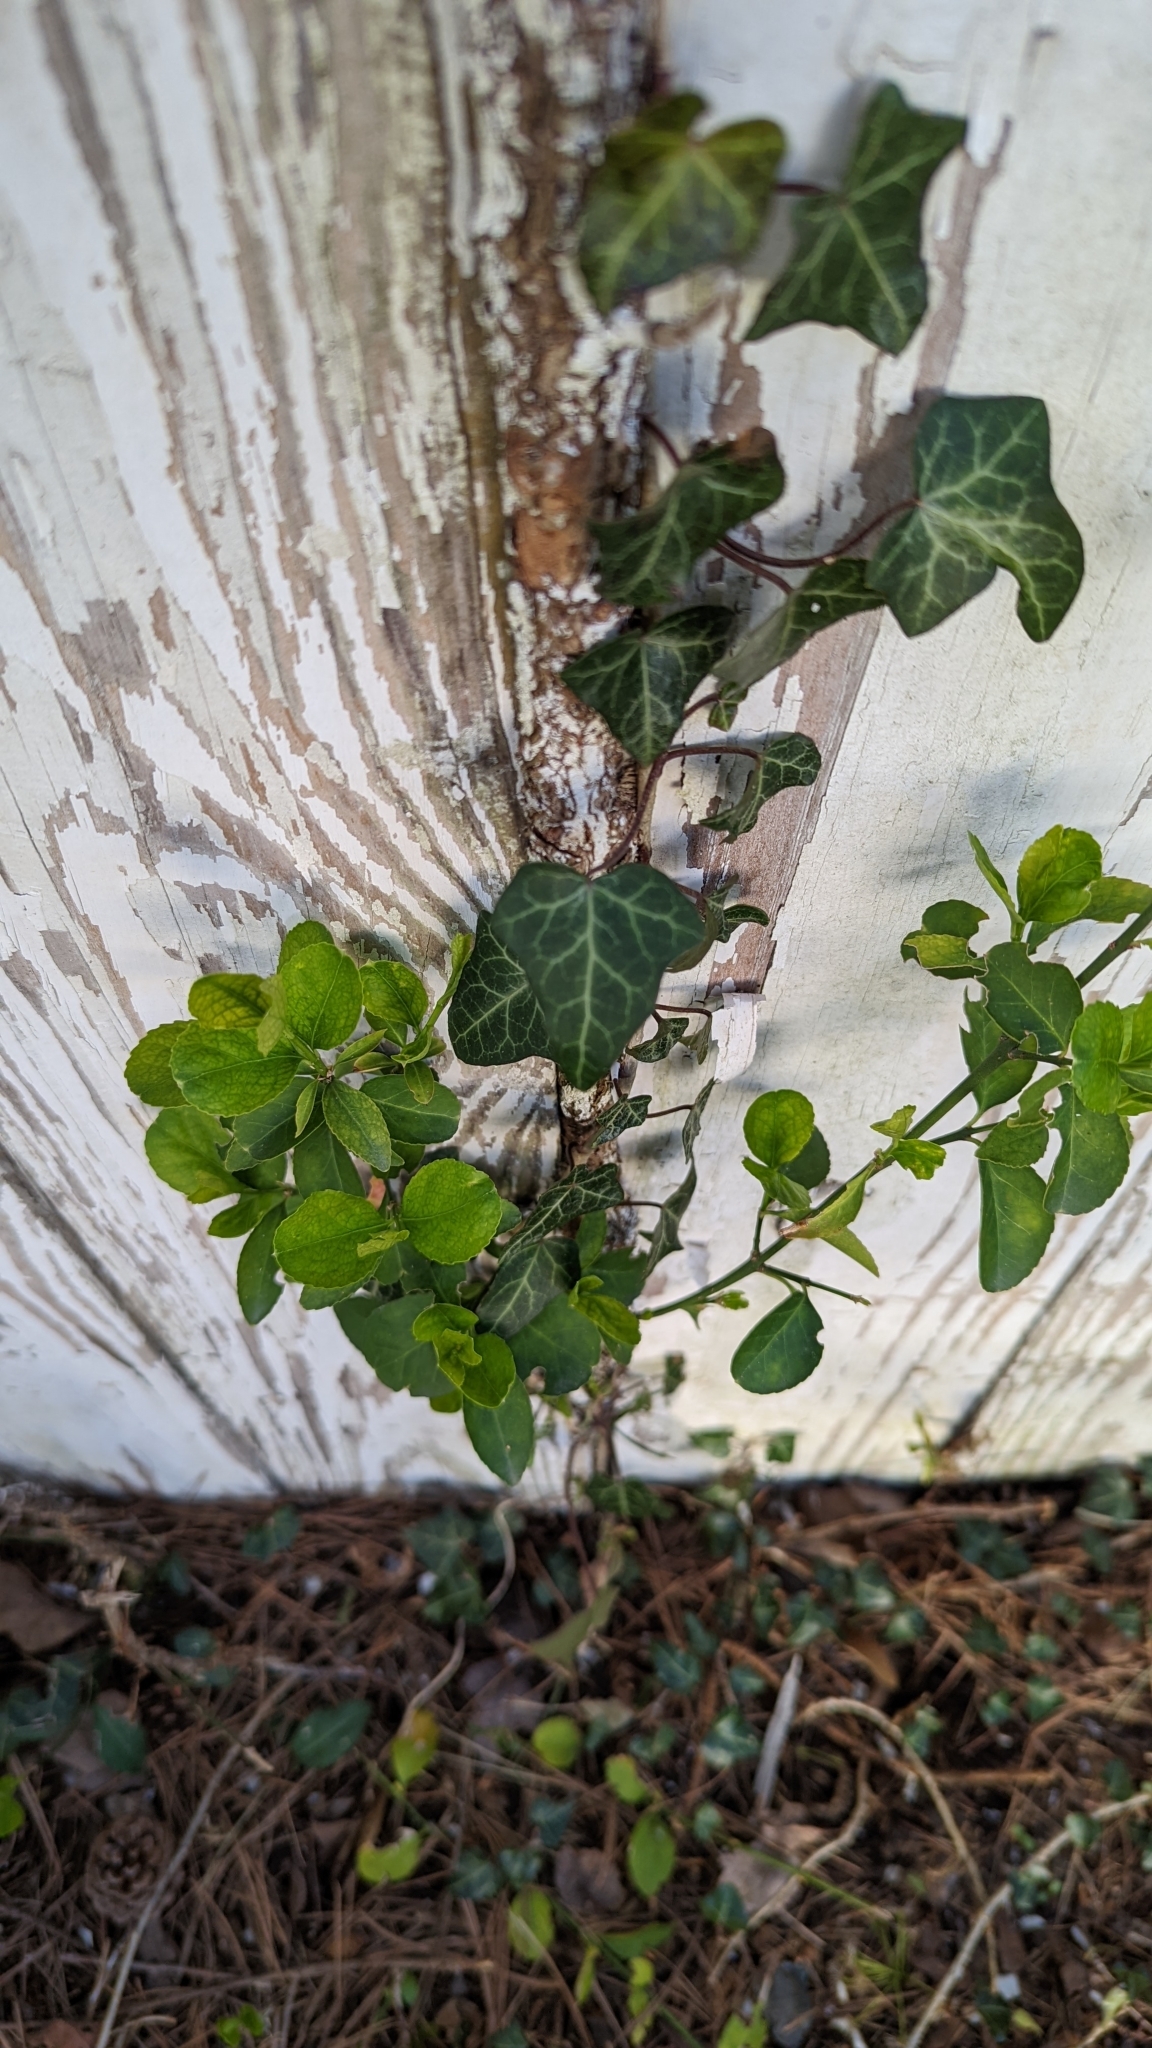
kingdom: Plantae
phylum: Tracheophyta
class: Magnoliopsida
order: Apiales
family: Araliaceae
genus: Hedera
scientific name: Hedera helix
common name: Ivy
